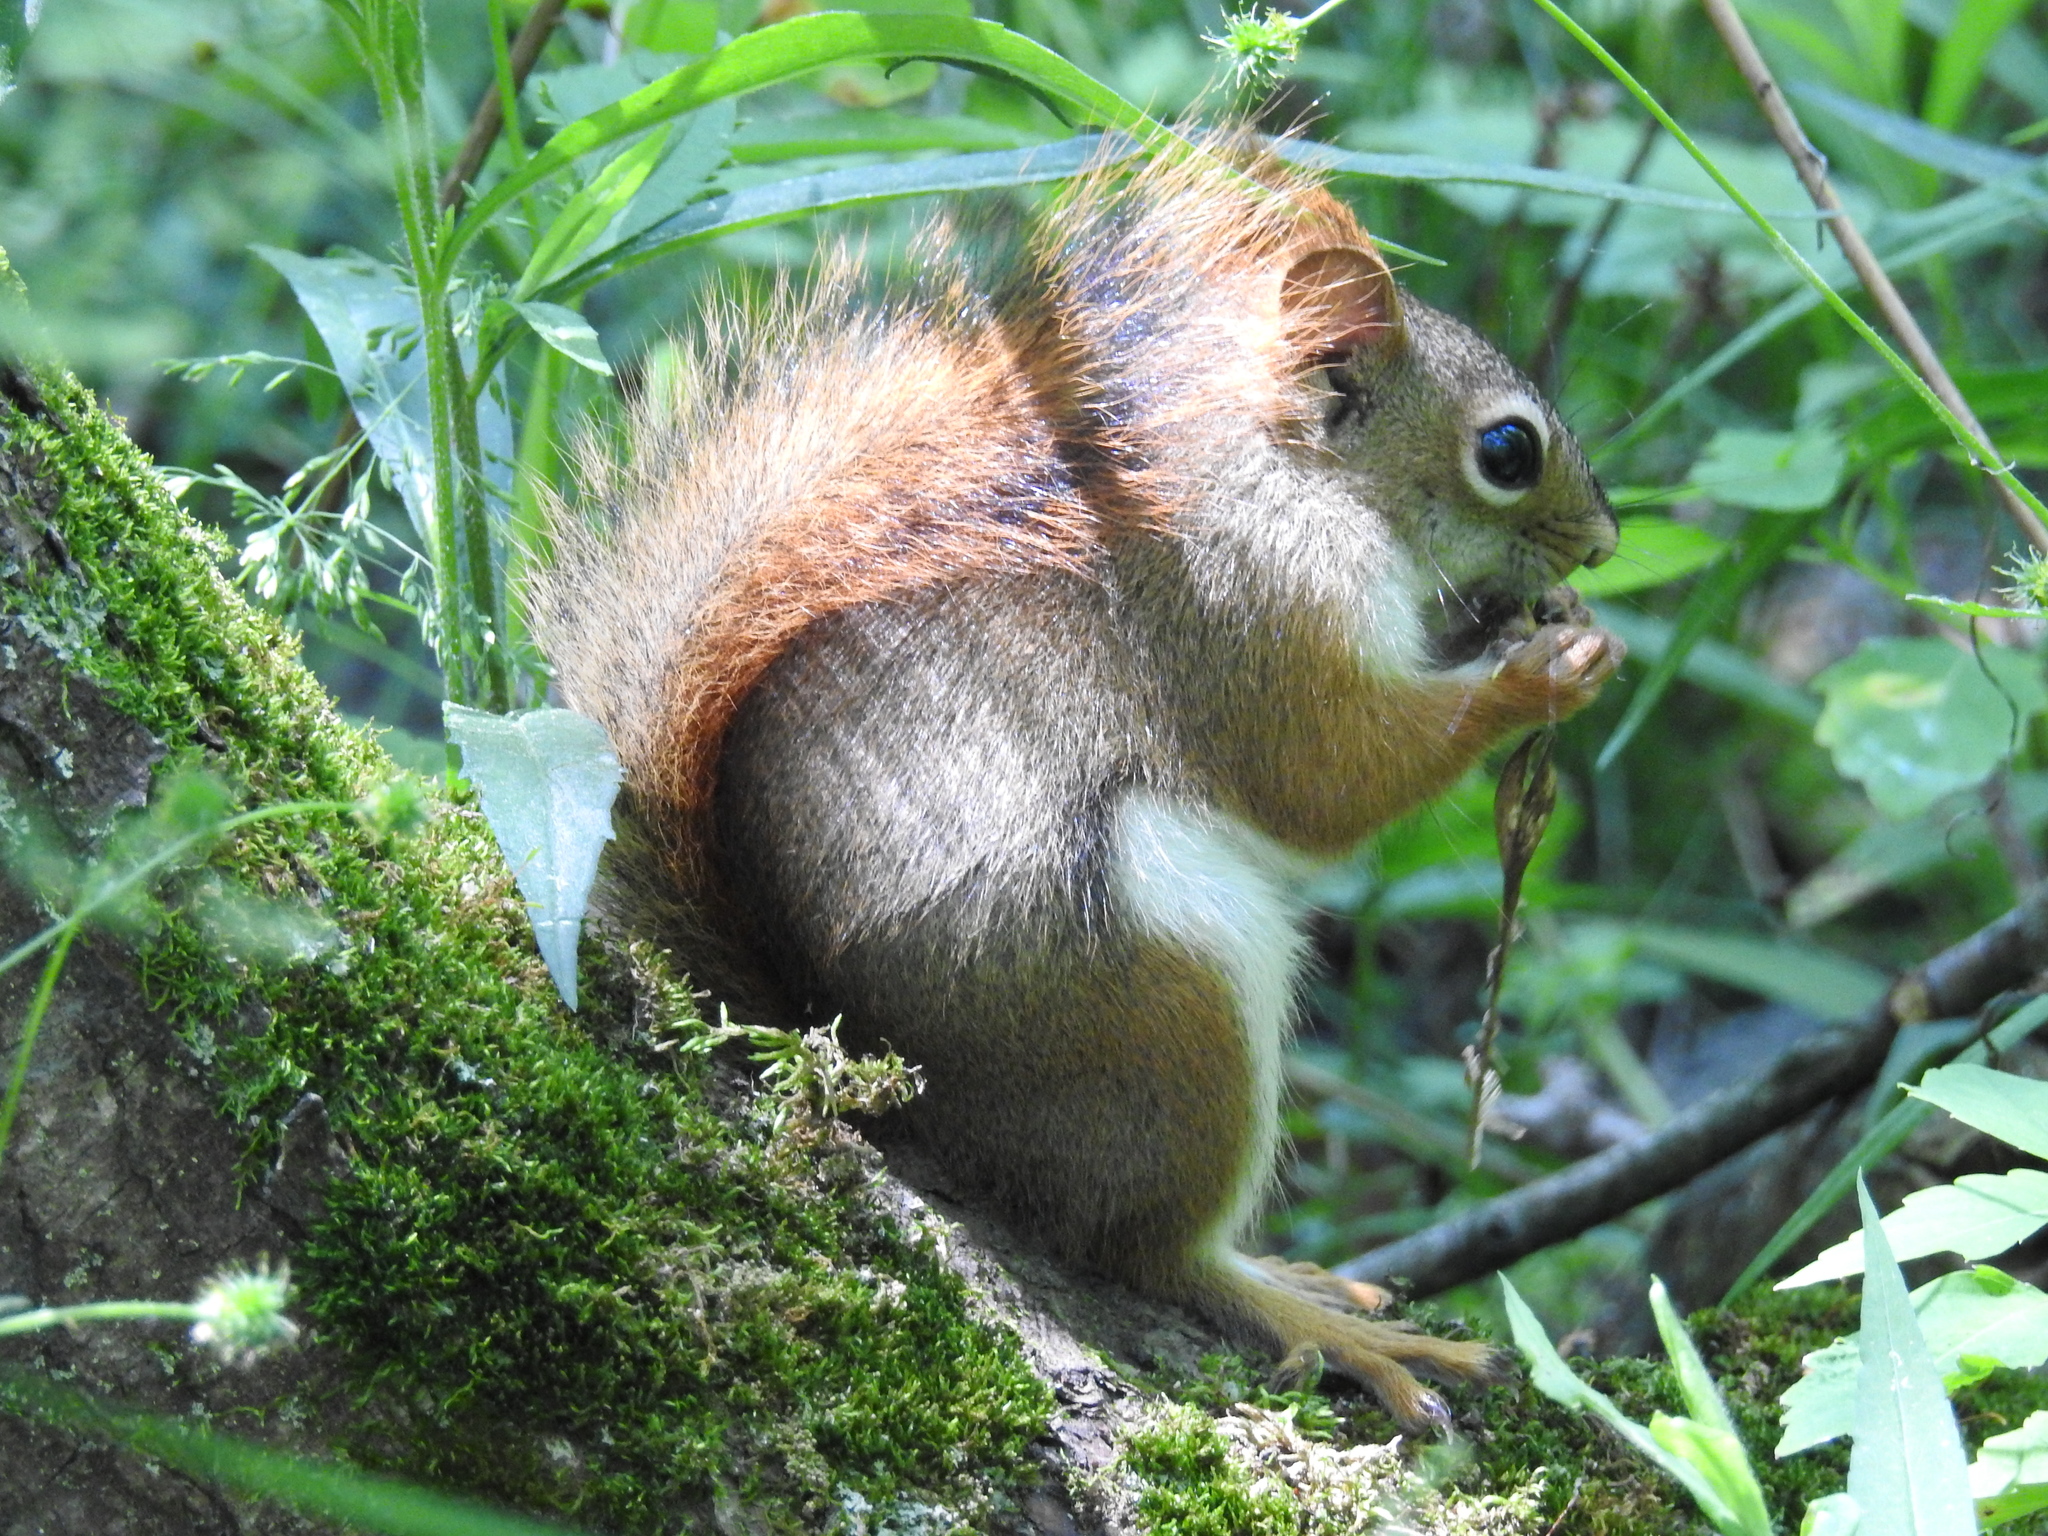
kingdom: Animalia
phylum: Chordata
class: Mammalia
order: Rodentia
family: Sciuridae
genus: Tamiasciurus
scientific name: Tamiasciurus hudsonicus
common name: Red squirrel
